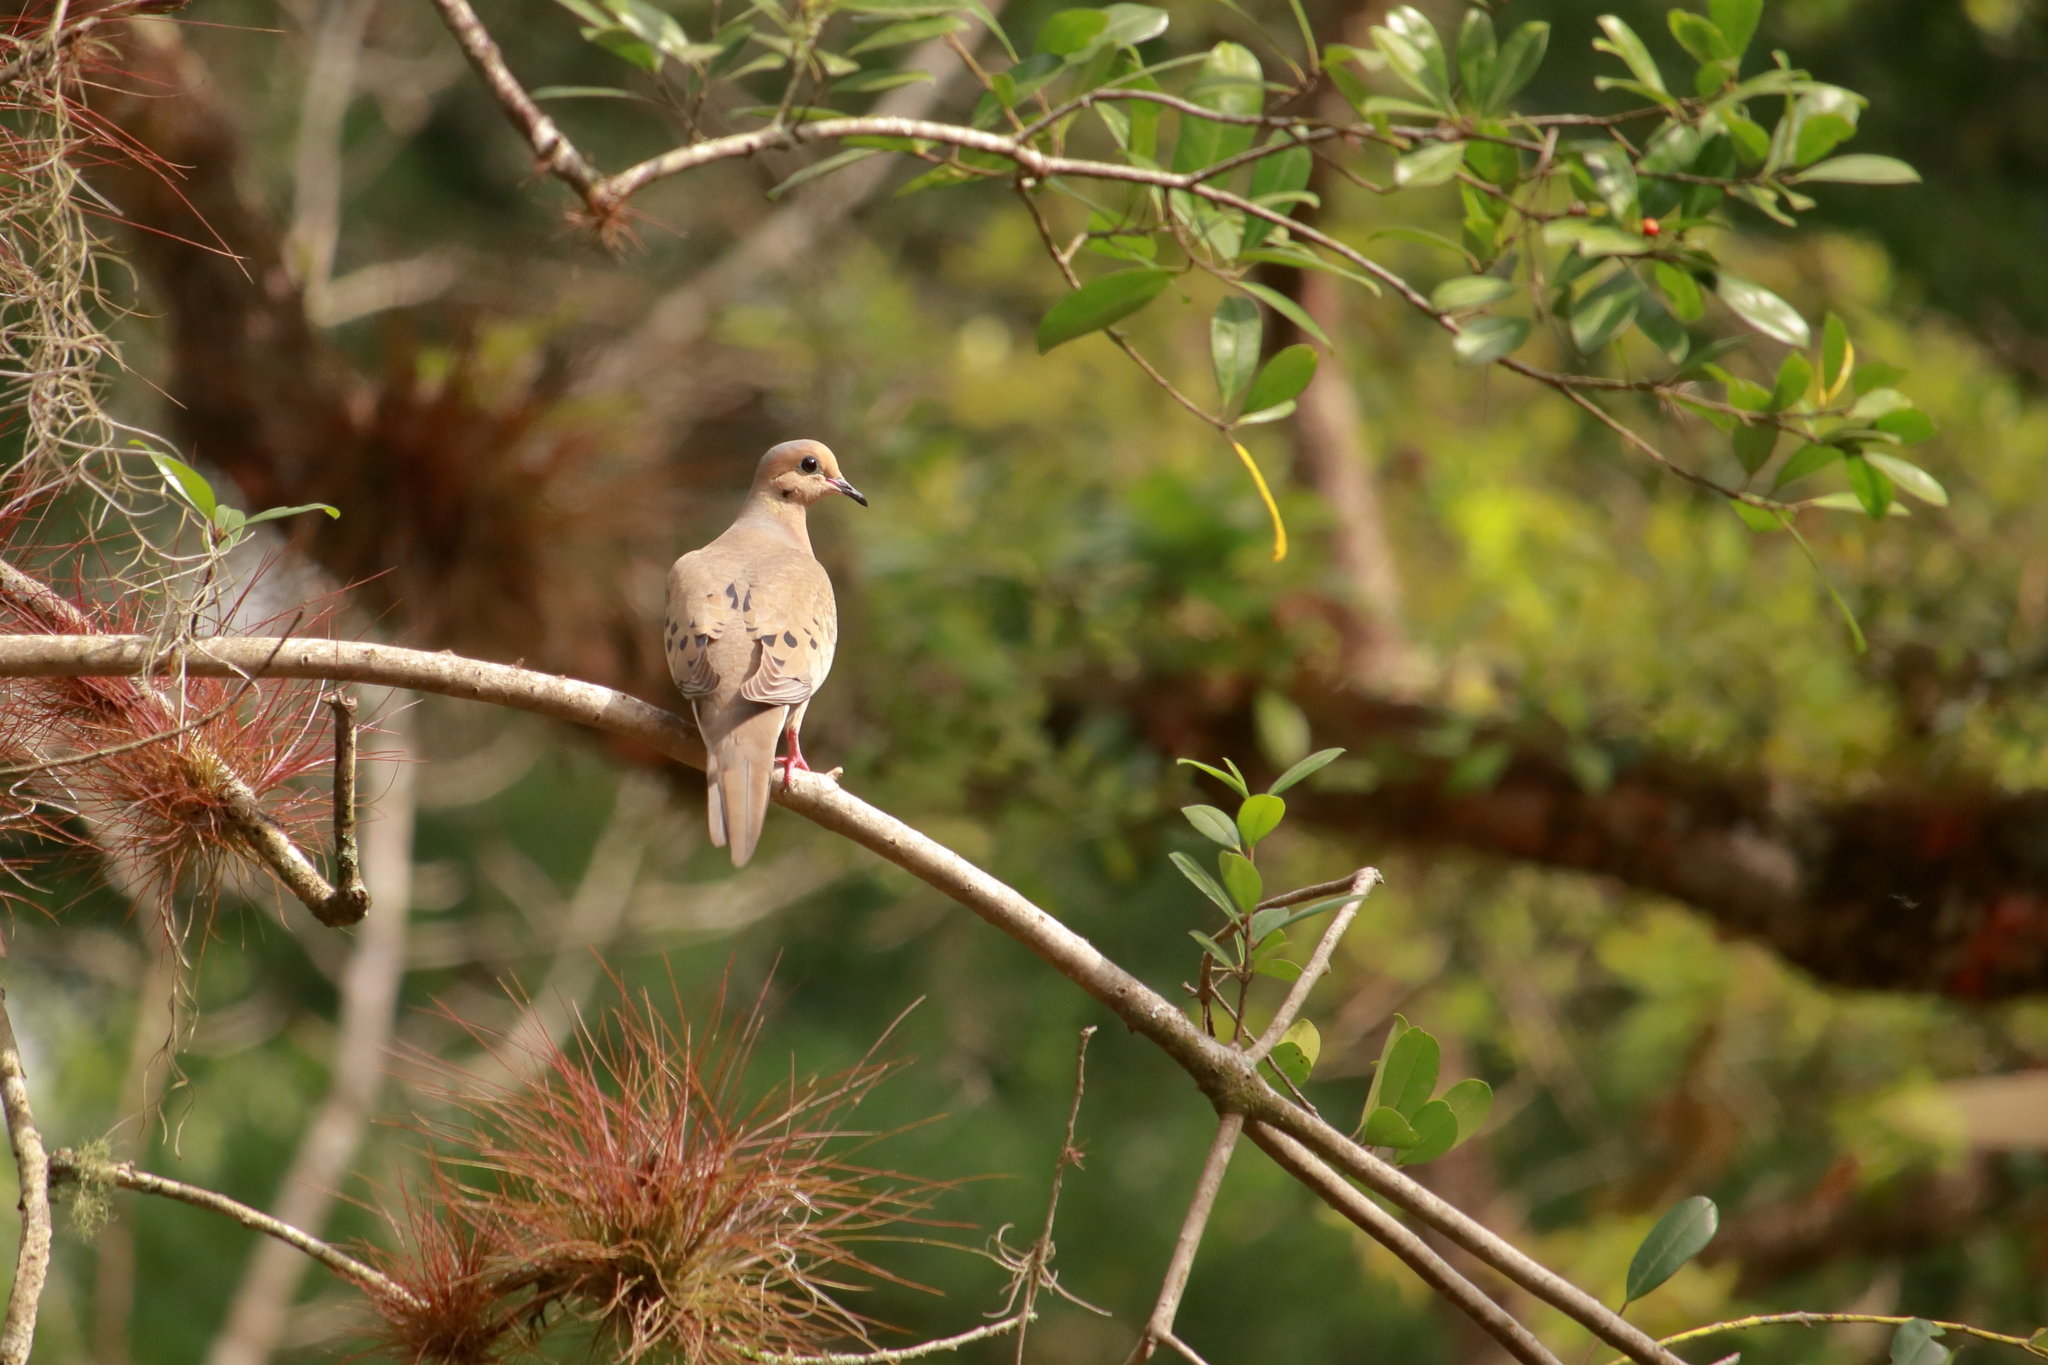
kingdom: Animalia
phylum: Chordata
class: Aves
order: Columbiformes
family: Columbidae
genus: Zenaida
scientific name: Zenaida macroura
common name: Mourning dove
